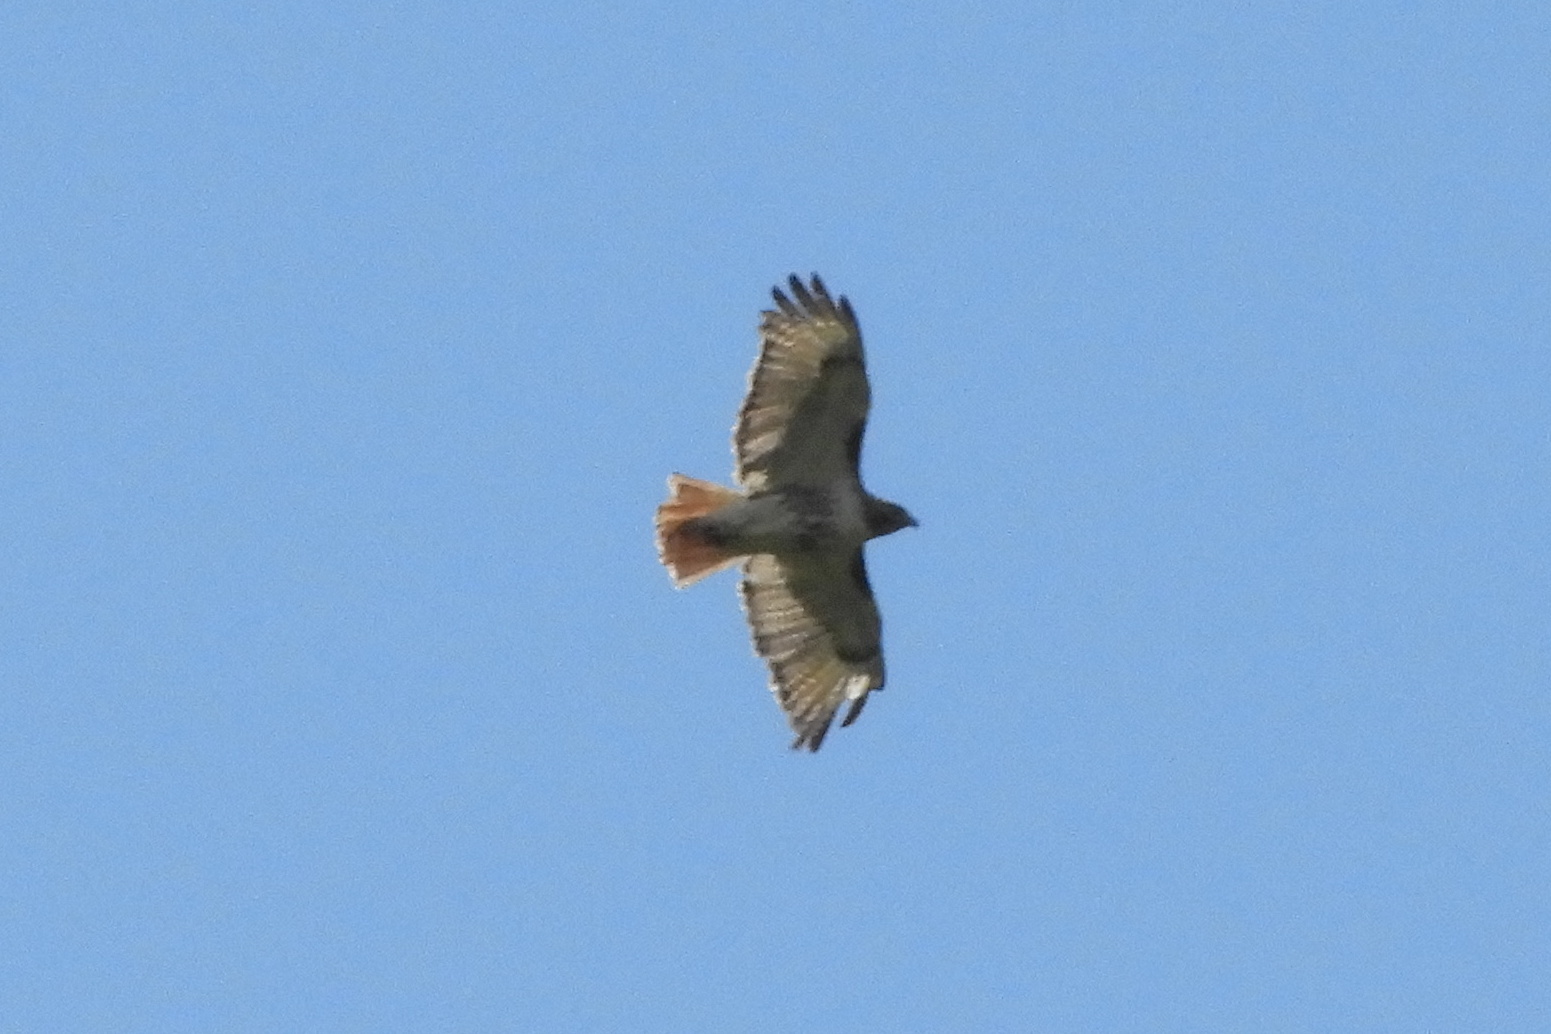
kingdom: Animalia
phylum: Chordata
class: Aves
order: Accipitriformes
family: Accipitridae
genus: Buteo
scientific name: Buteo jamaicensis
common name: Red-tailed hawk
